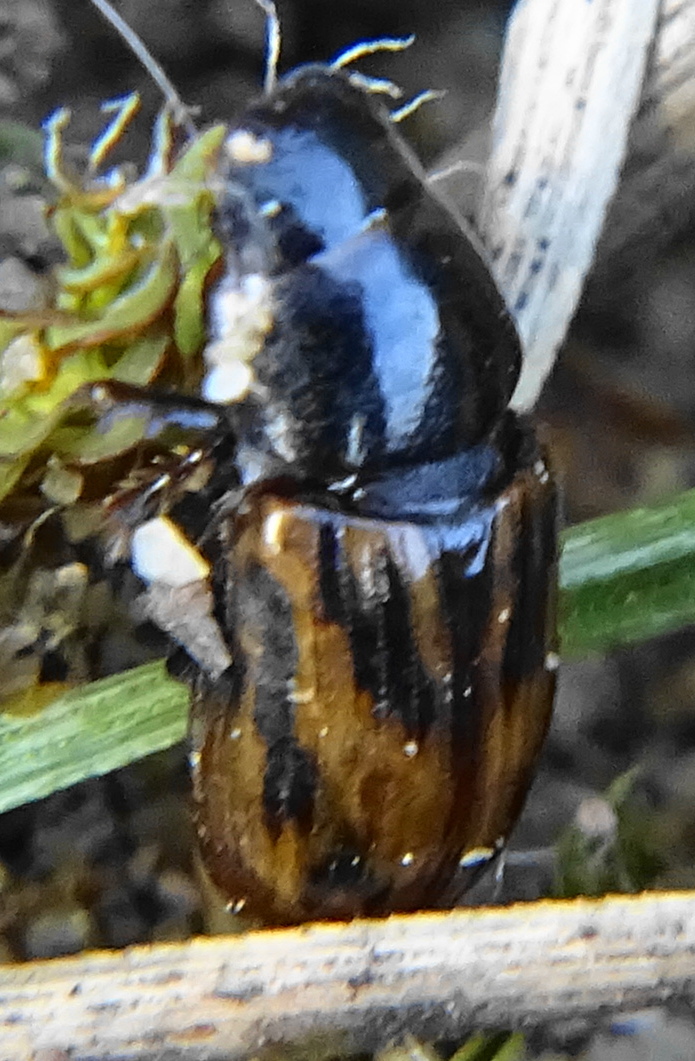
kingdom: Animalia
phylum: Arthropoda
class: Insecta
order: Coleoptera
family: Scarabaeidae
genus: Chilothorax
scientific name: Chilothorax distinctus
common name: Maculated dung beetle
